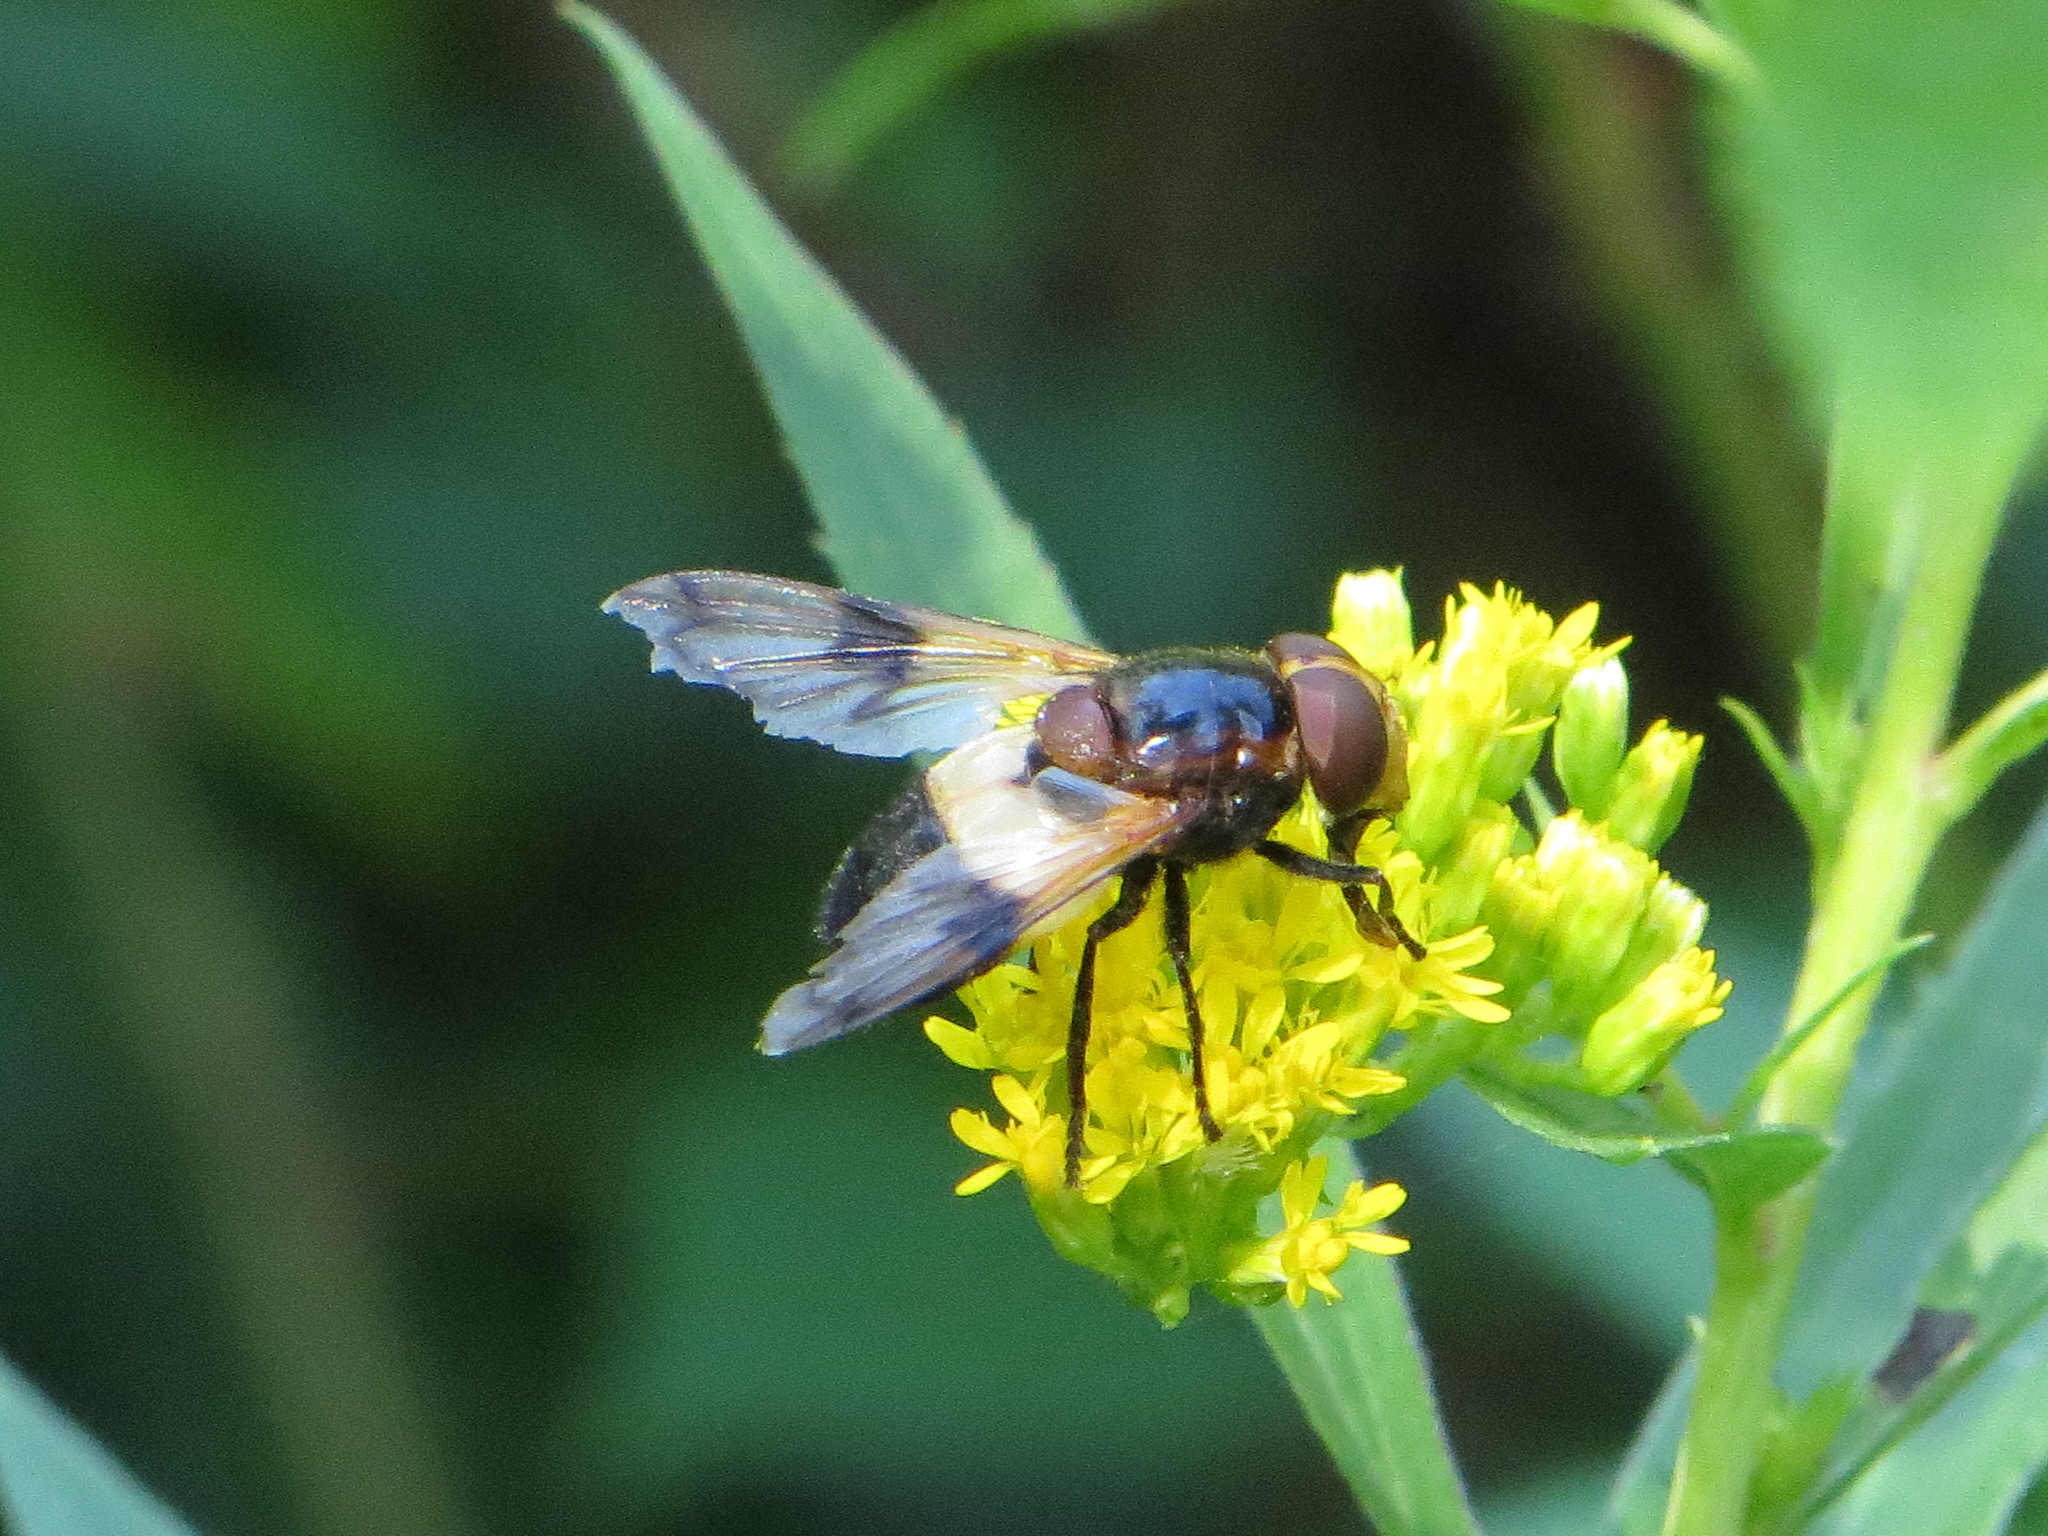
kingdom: Animalia
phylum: Arthropoda
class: Insecta
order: Diptera
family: Syrphidae
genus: Volucella
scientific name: Volucella pellucens
